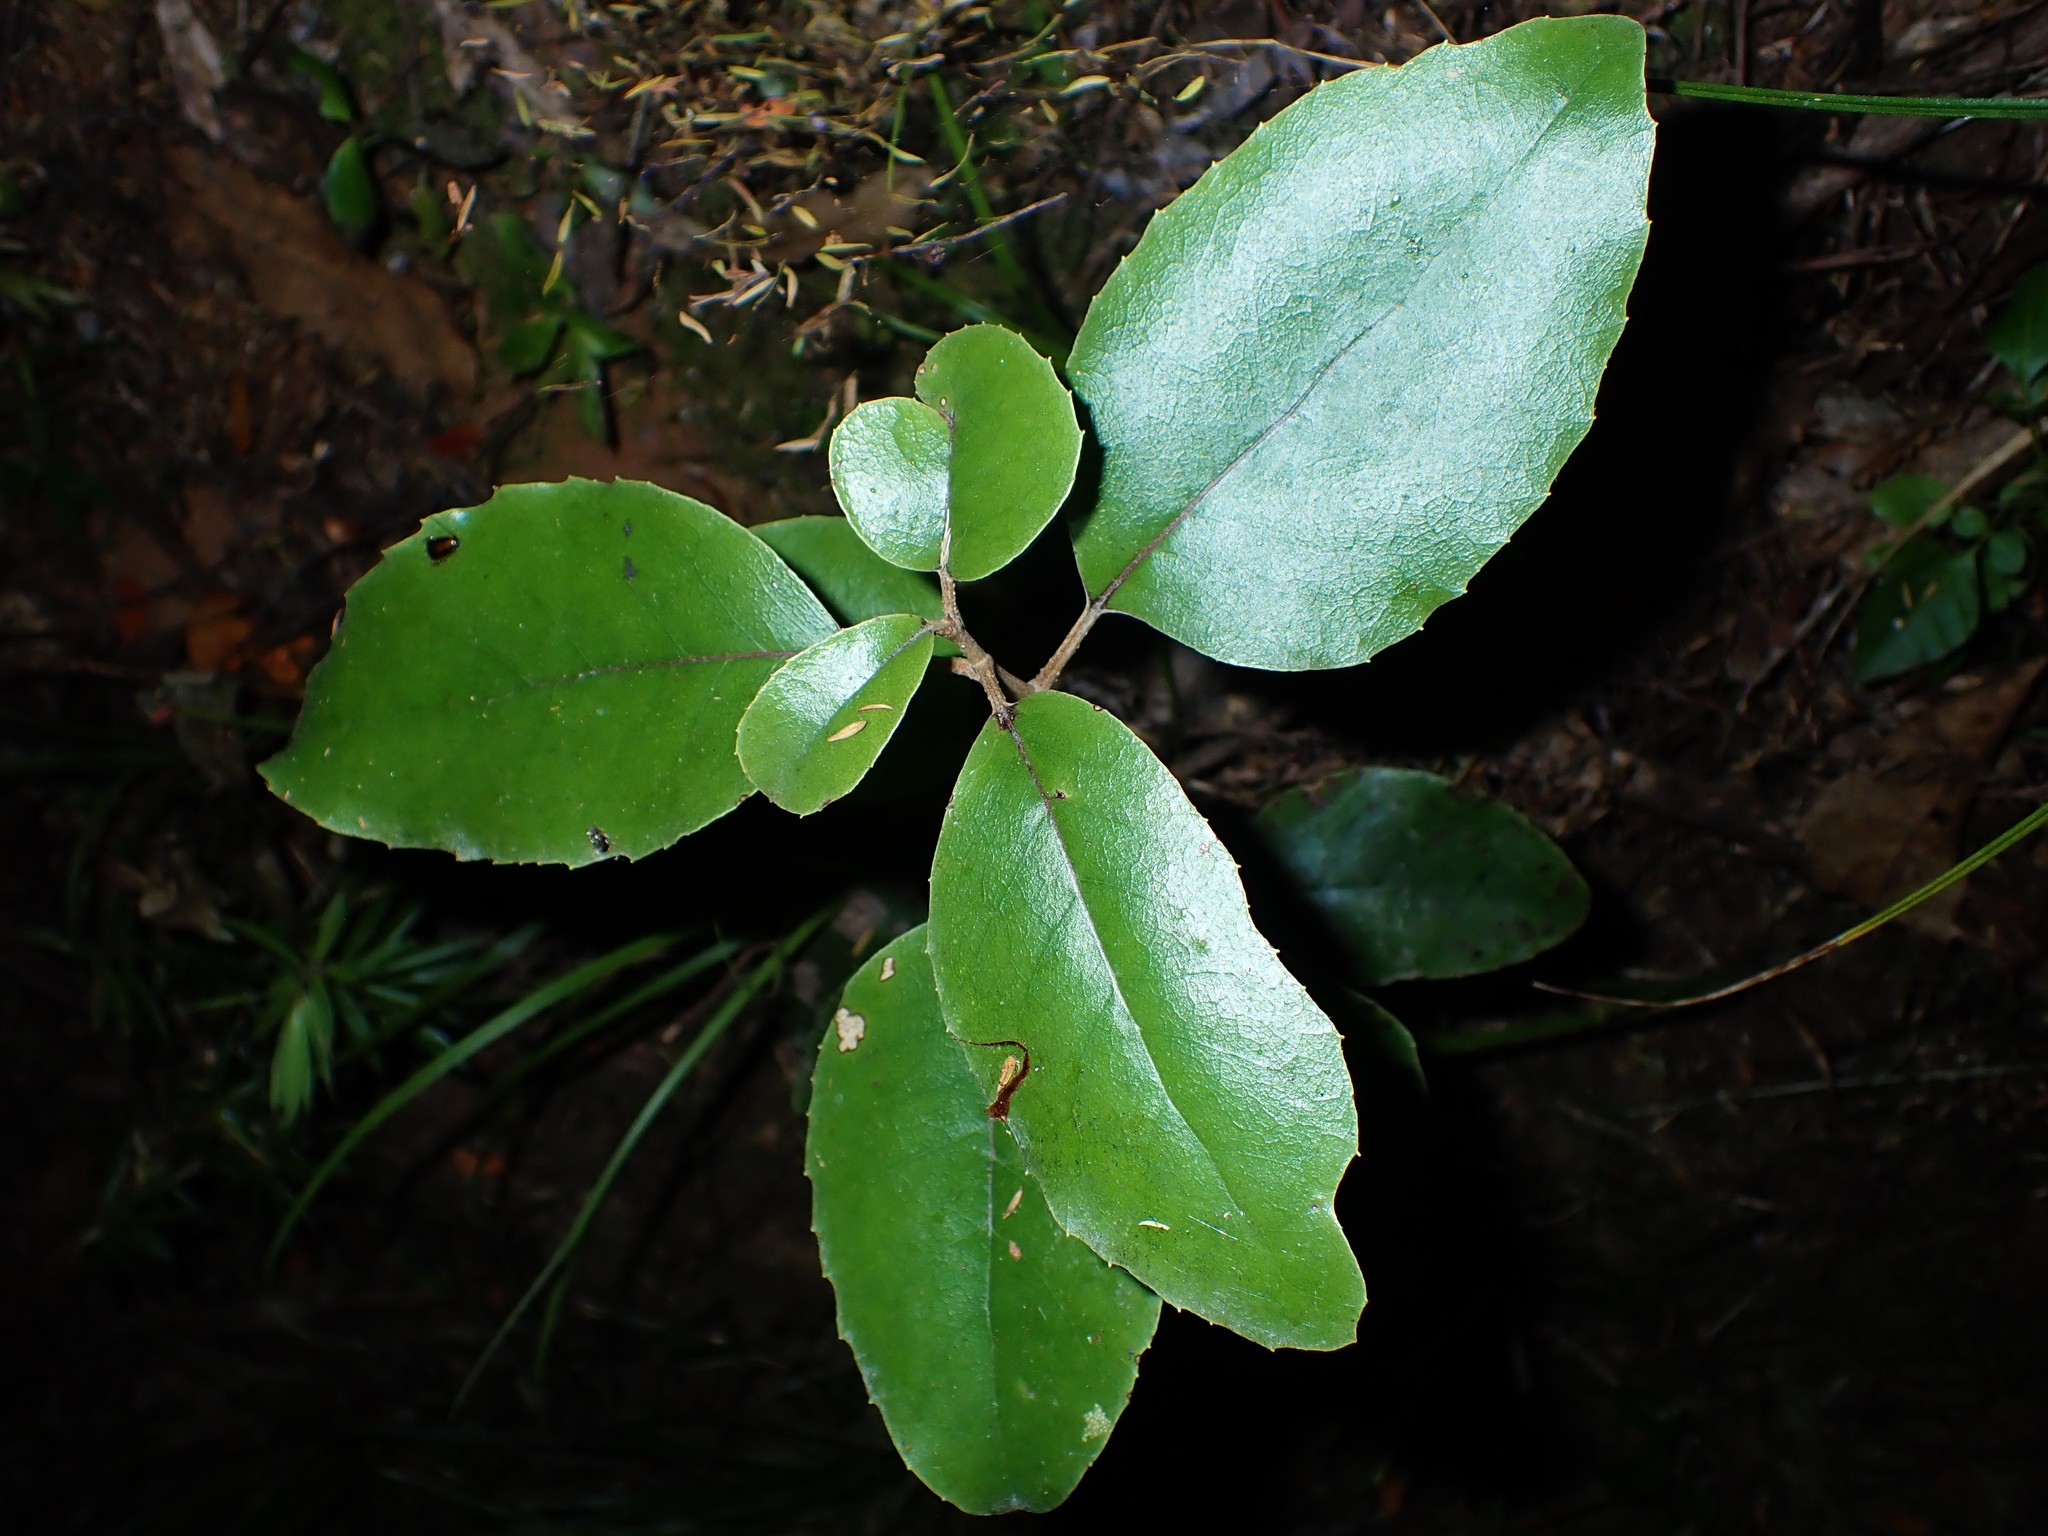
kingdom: Plantae
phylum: Tracheophyta
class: Magnoliopsida
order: Asterales
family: Asteraceae
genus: Olearia
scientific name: Olearia furfuracea
